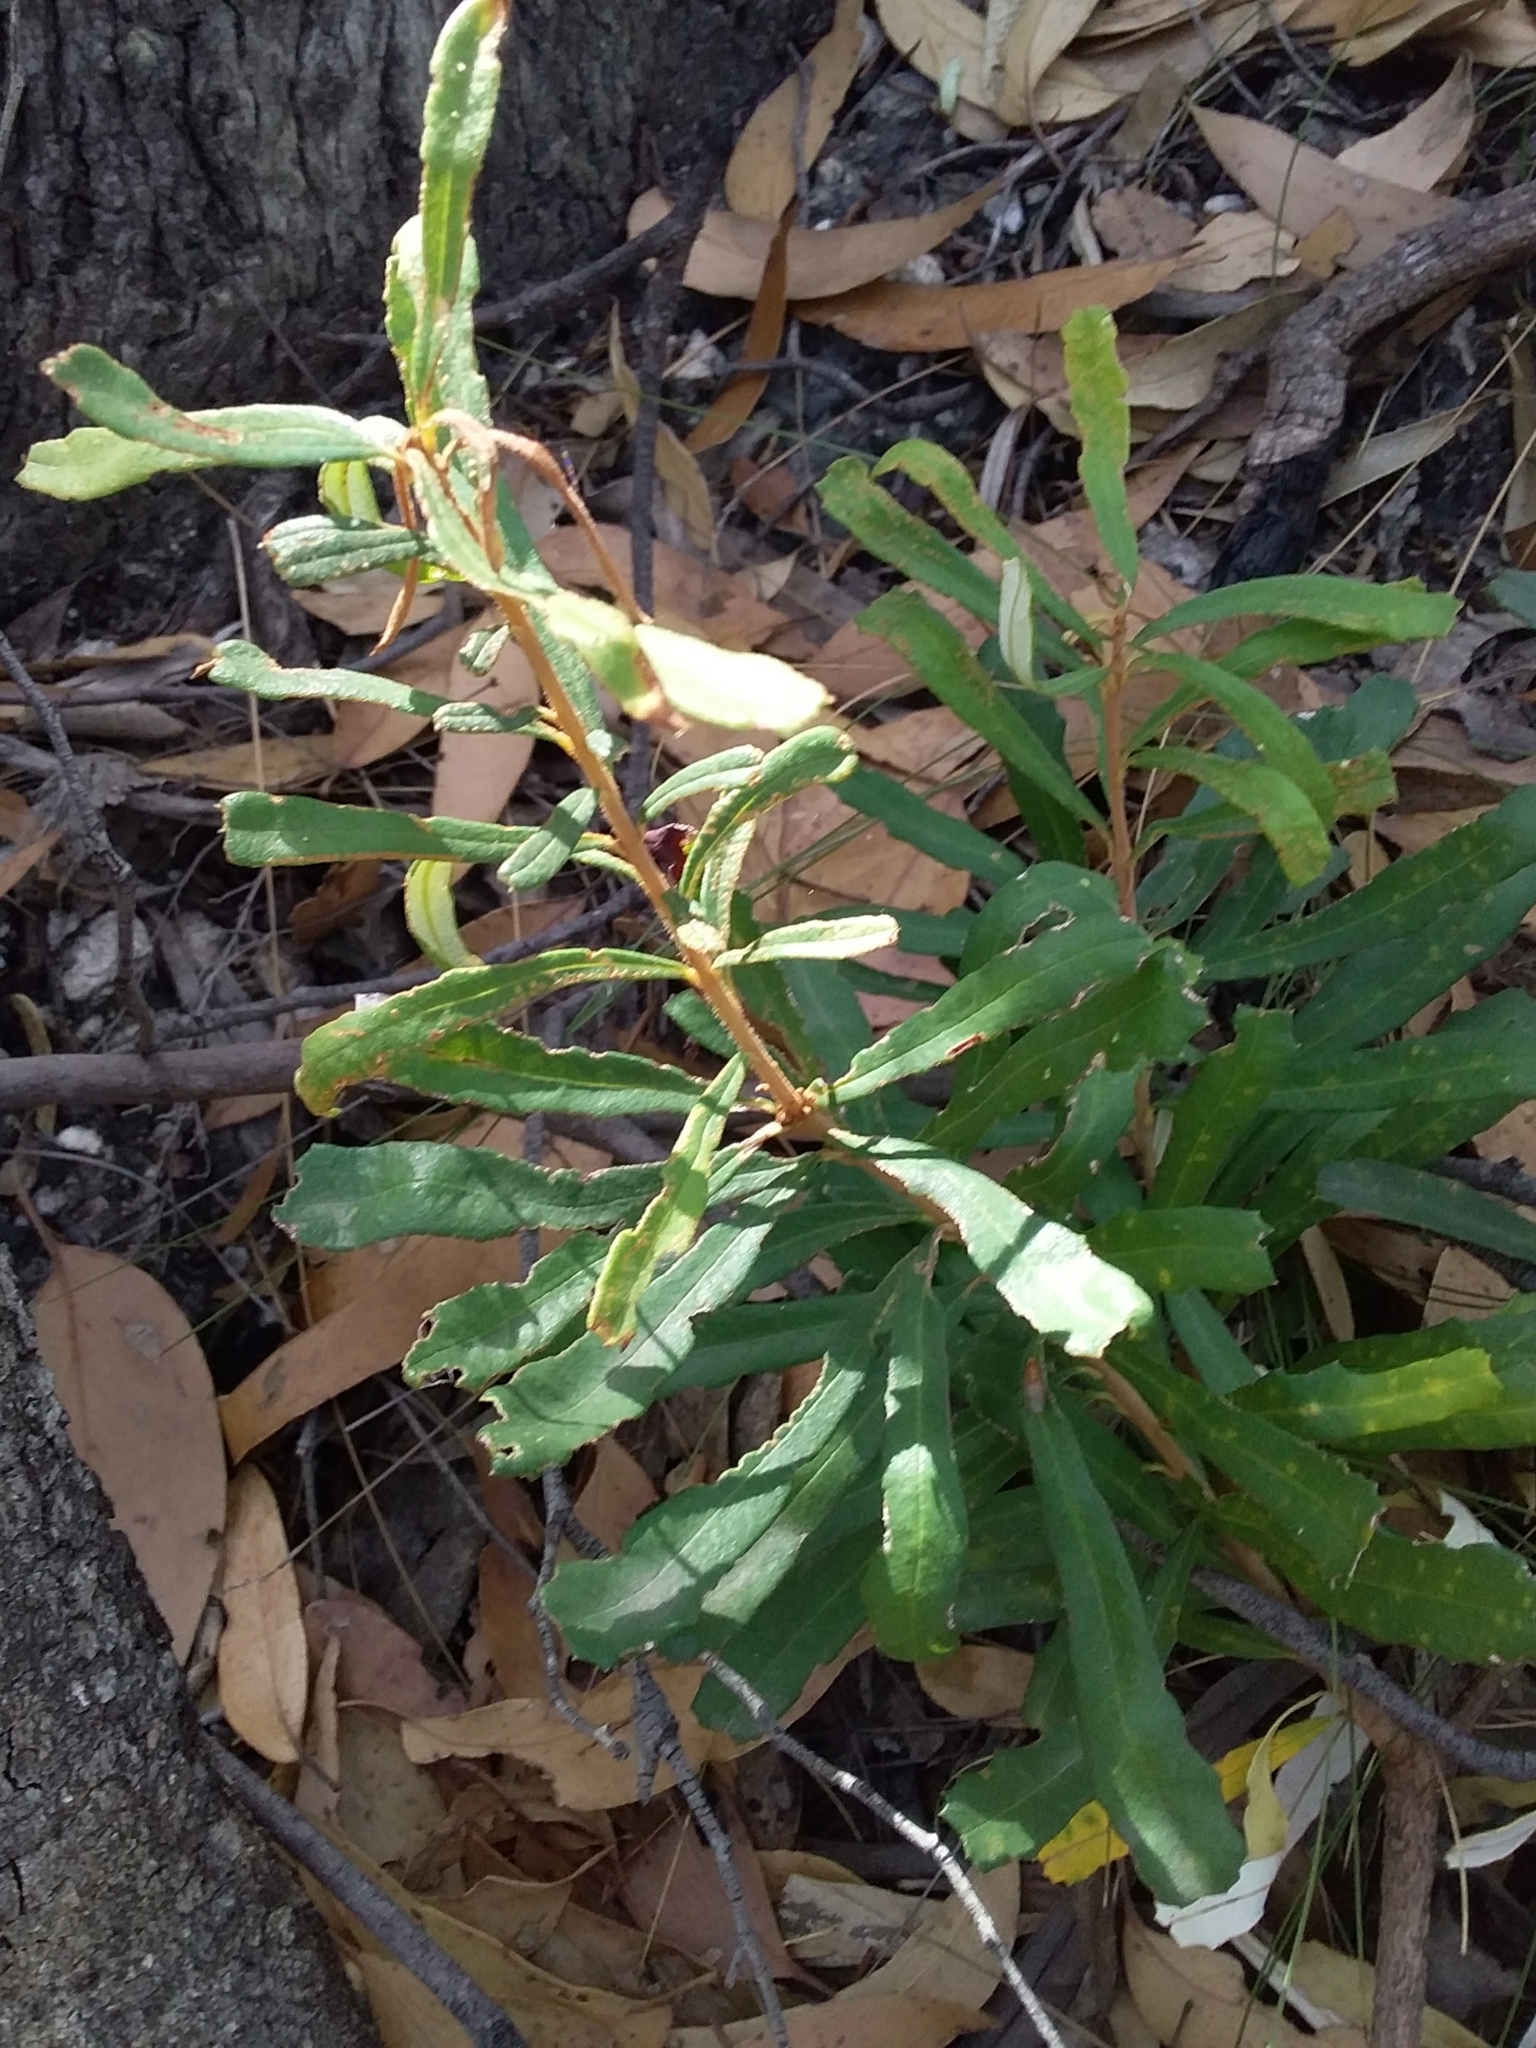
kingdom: Plantae
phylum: Tracheophyta
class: Magnoliopsida
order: Proteales
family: Proteaceae
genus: Banksia
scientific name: Banksia marginata
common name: Silver banksia
